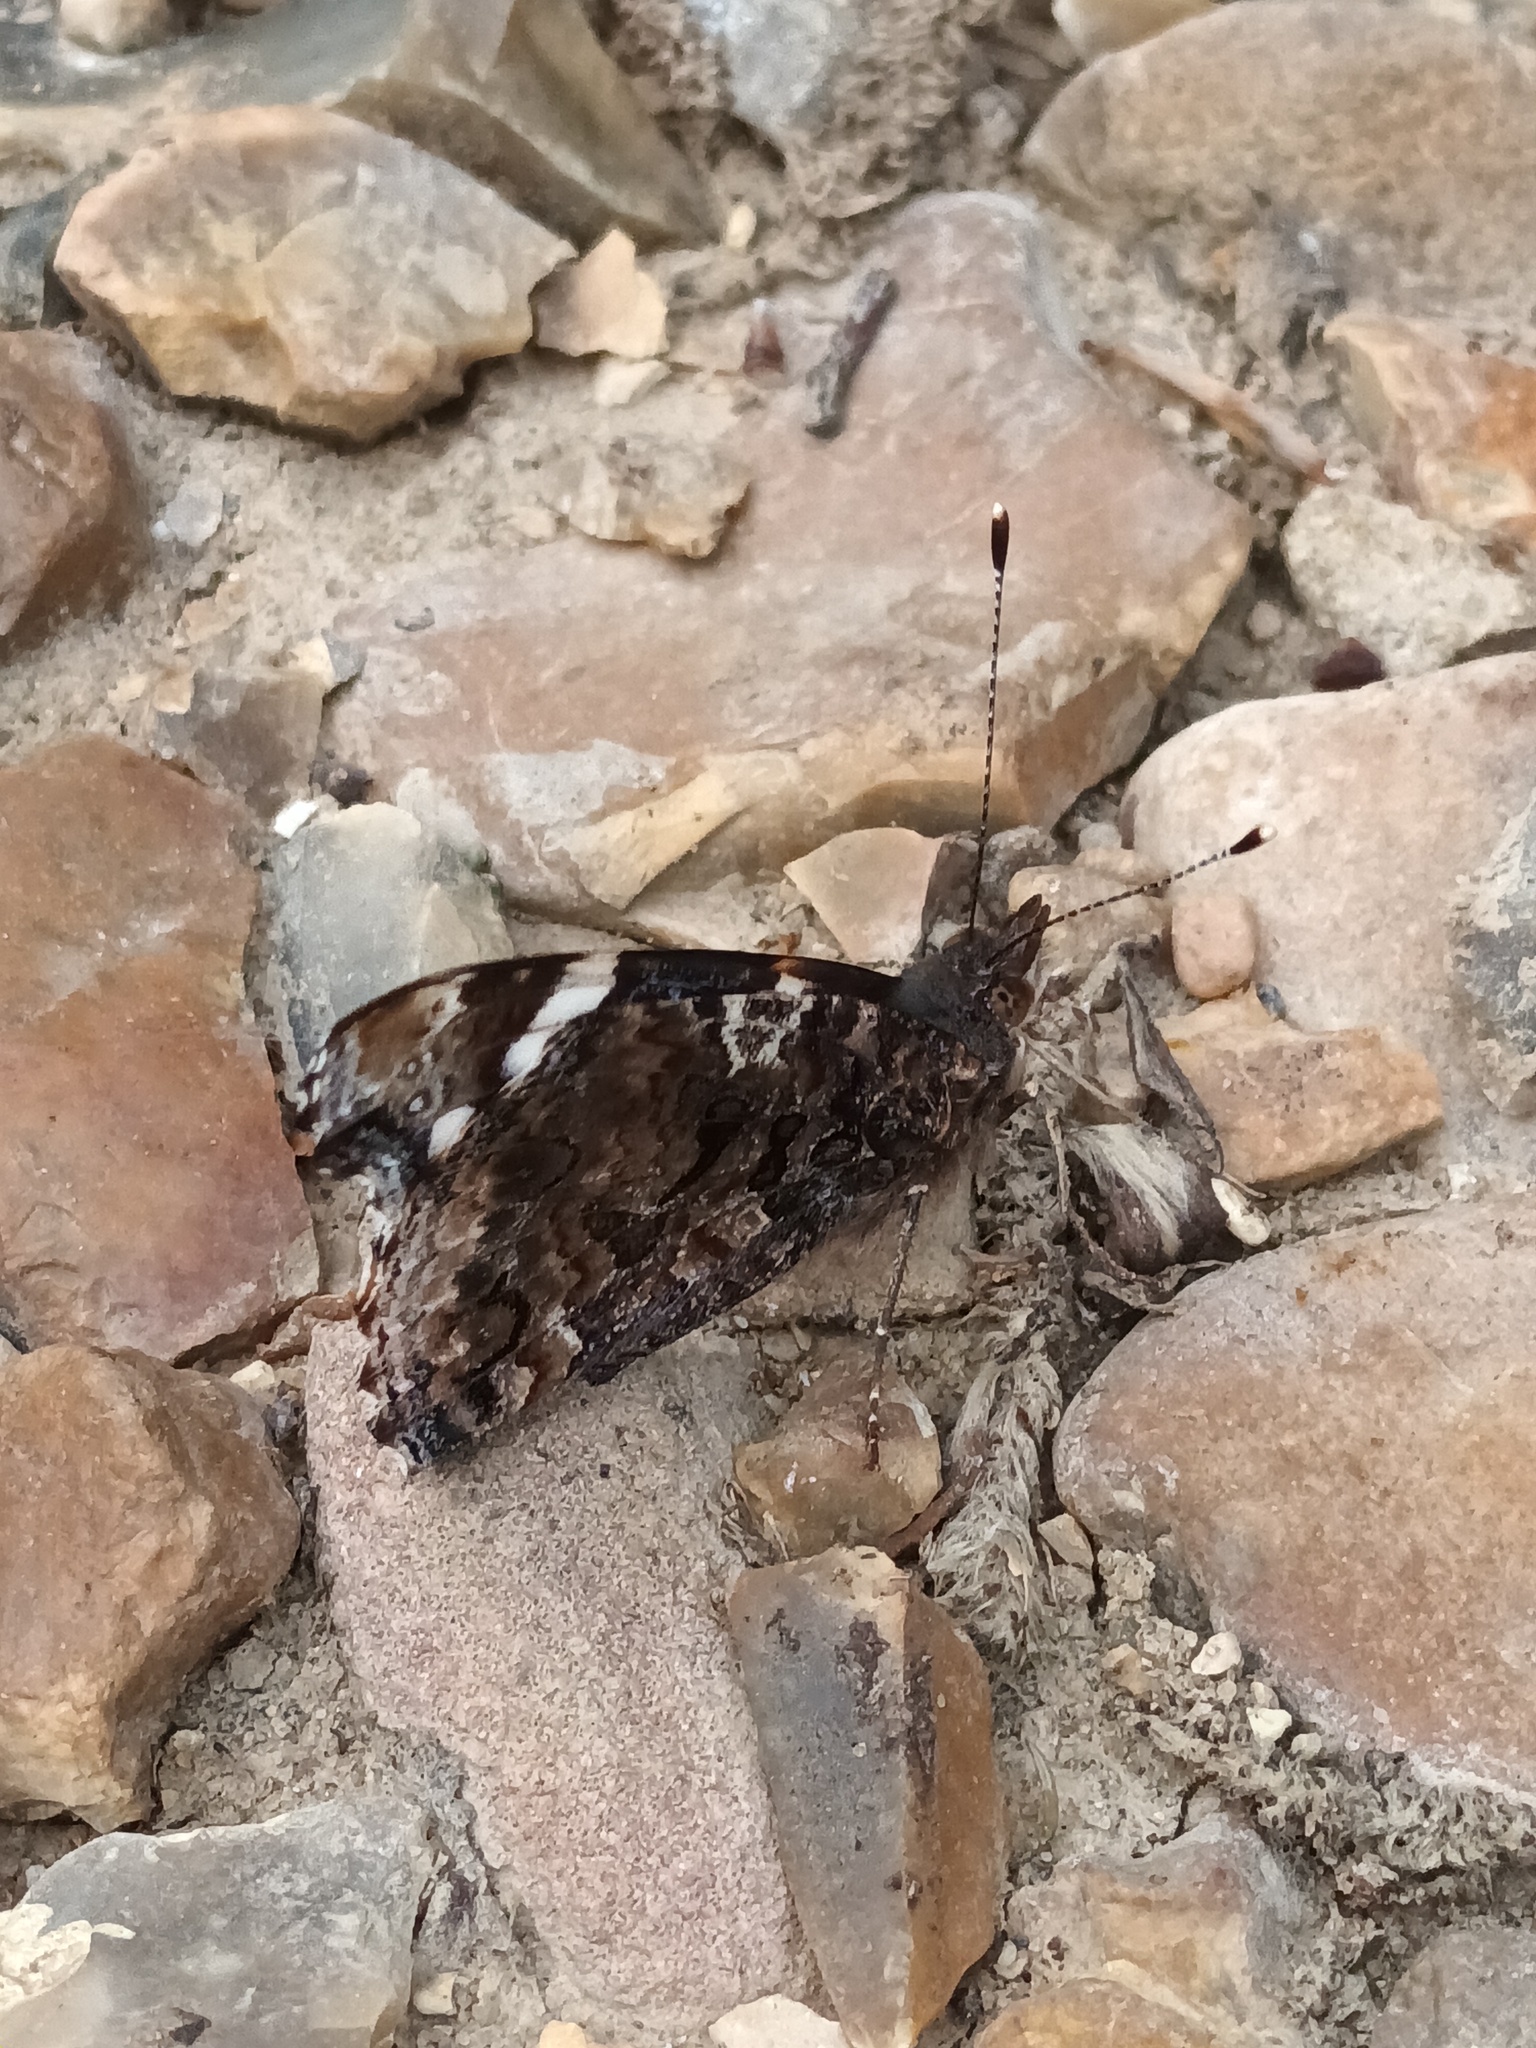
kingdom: Animalia
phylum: Arthropoda
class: Insecta
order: Lepidoptera
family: Nymphalidae
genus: Vanessa
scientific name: Vanessa atalanta
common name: Red admiral
